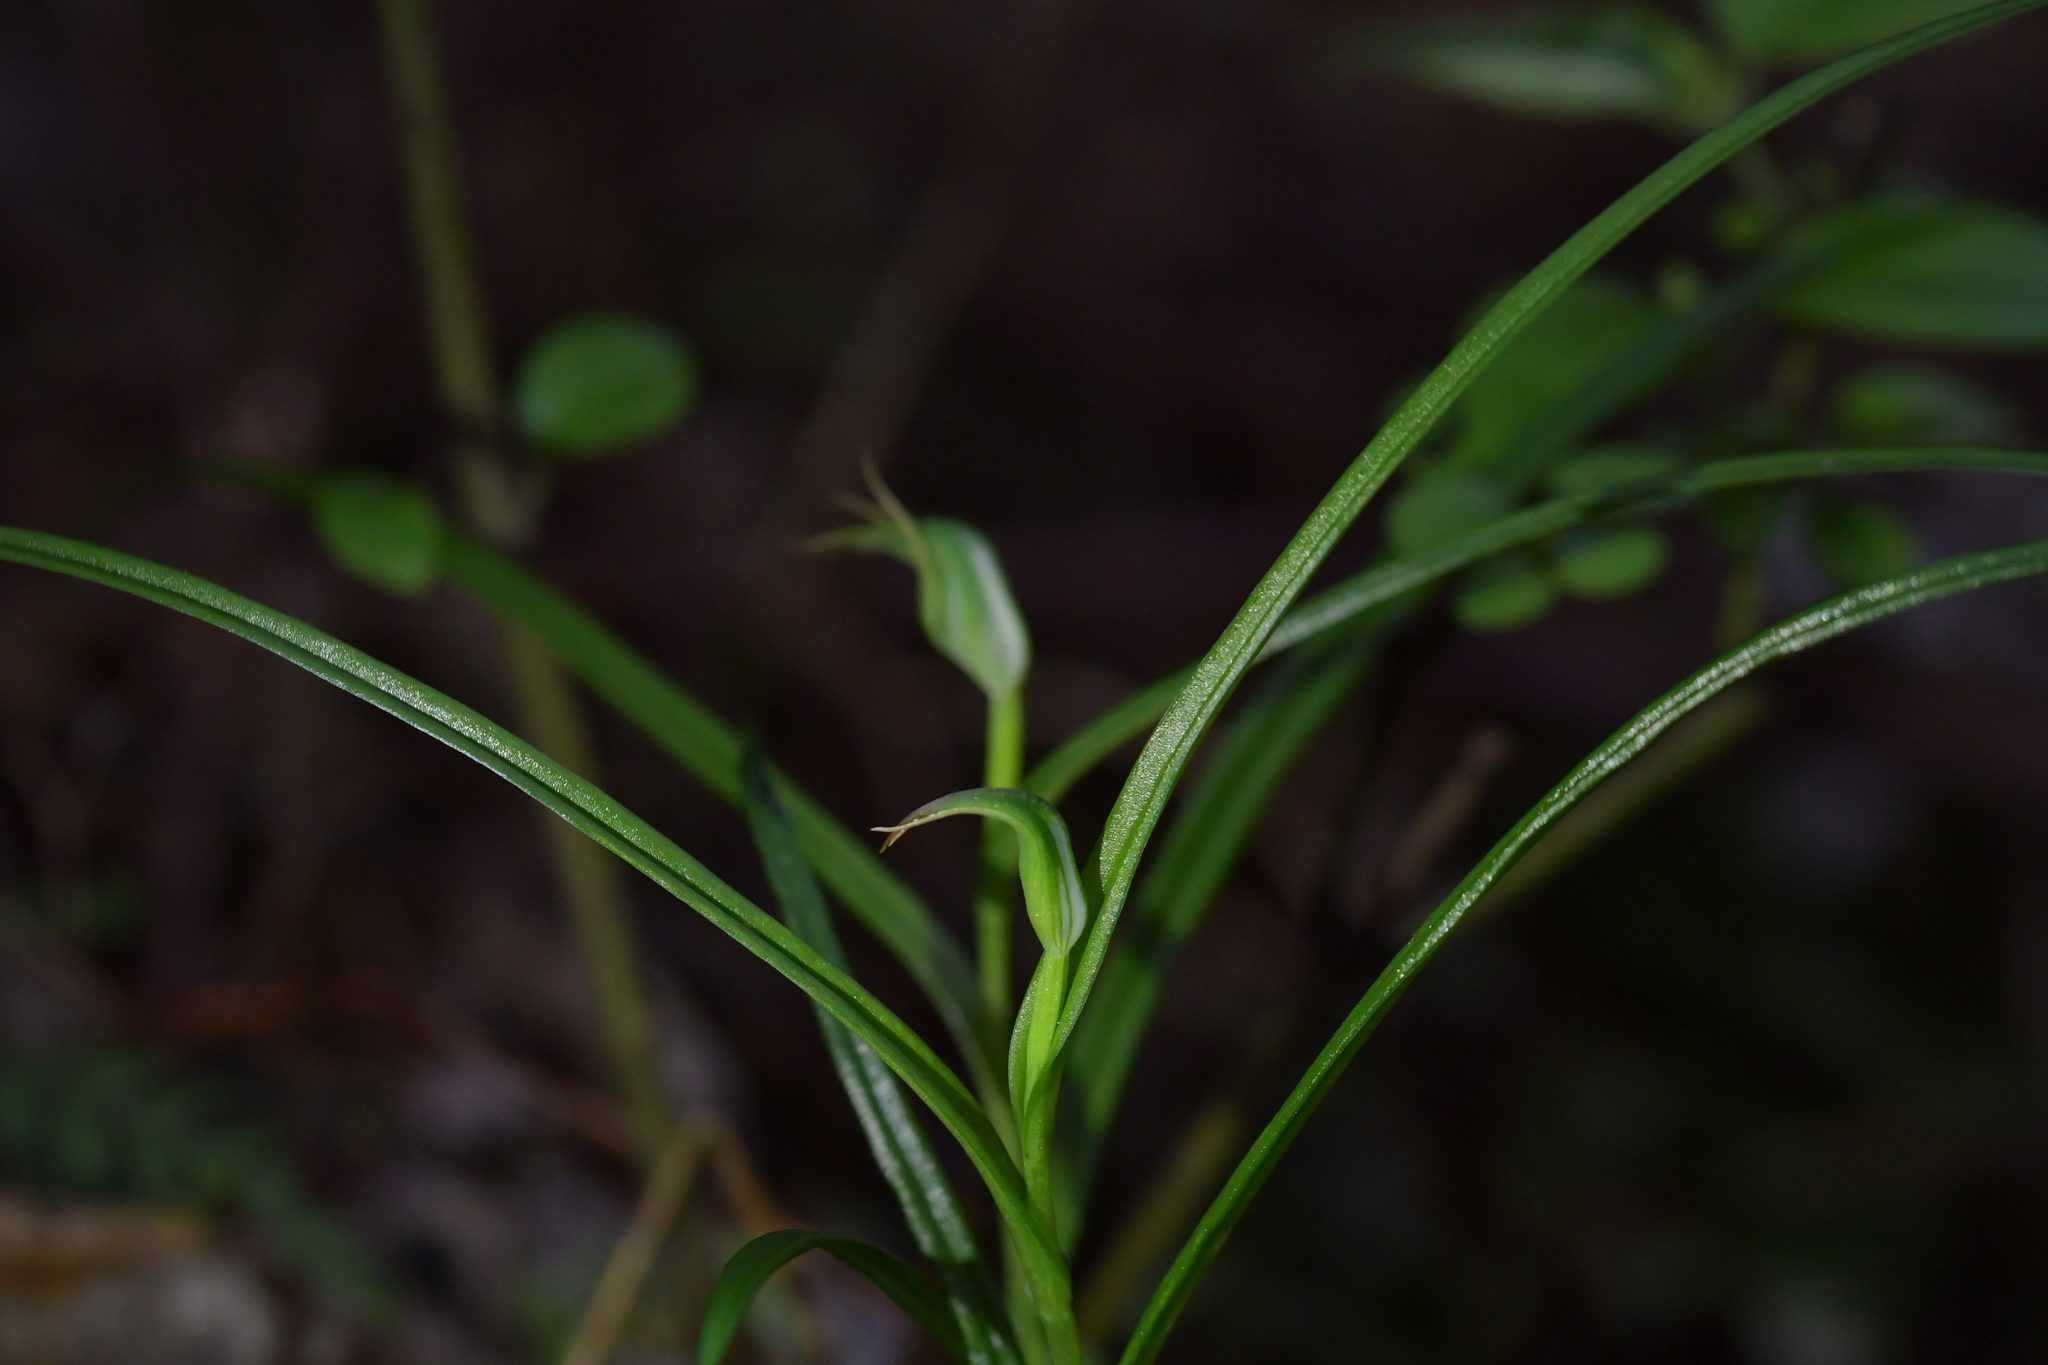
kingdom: Plantae
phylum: Tracheophyta
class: Liliopsida
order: Asparagales
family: Orchidaceae
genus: Pterostylis
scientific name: Pterostylis graminea
